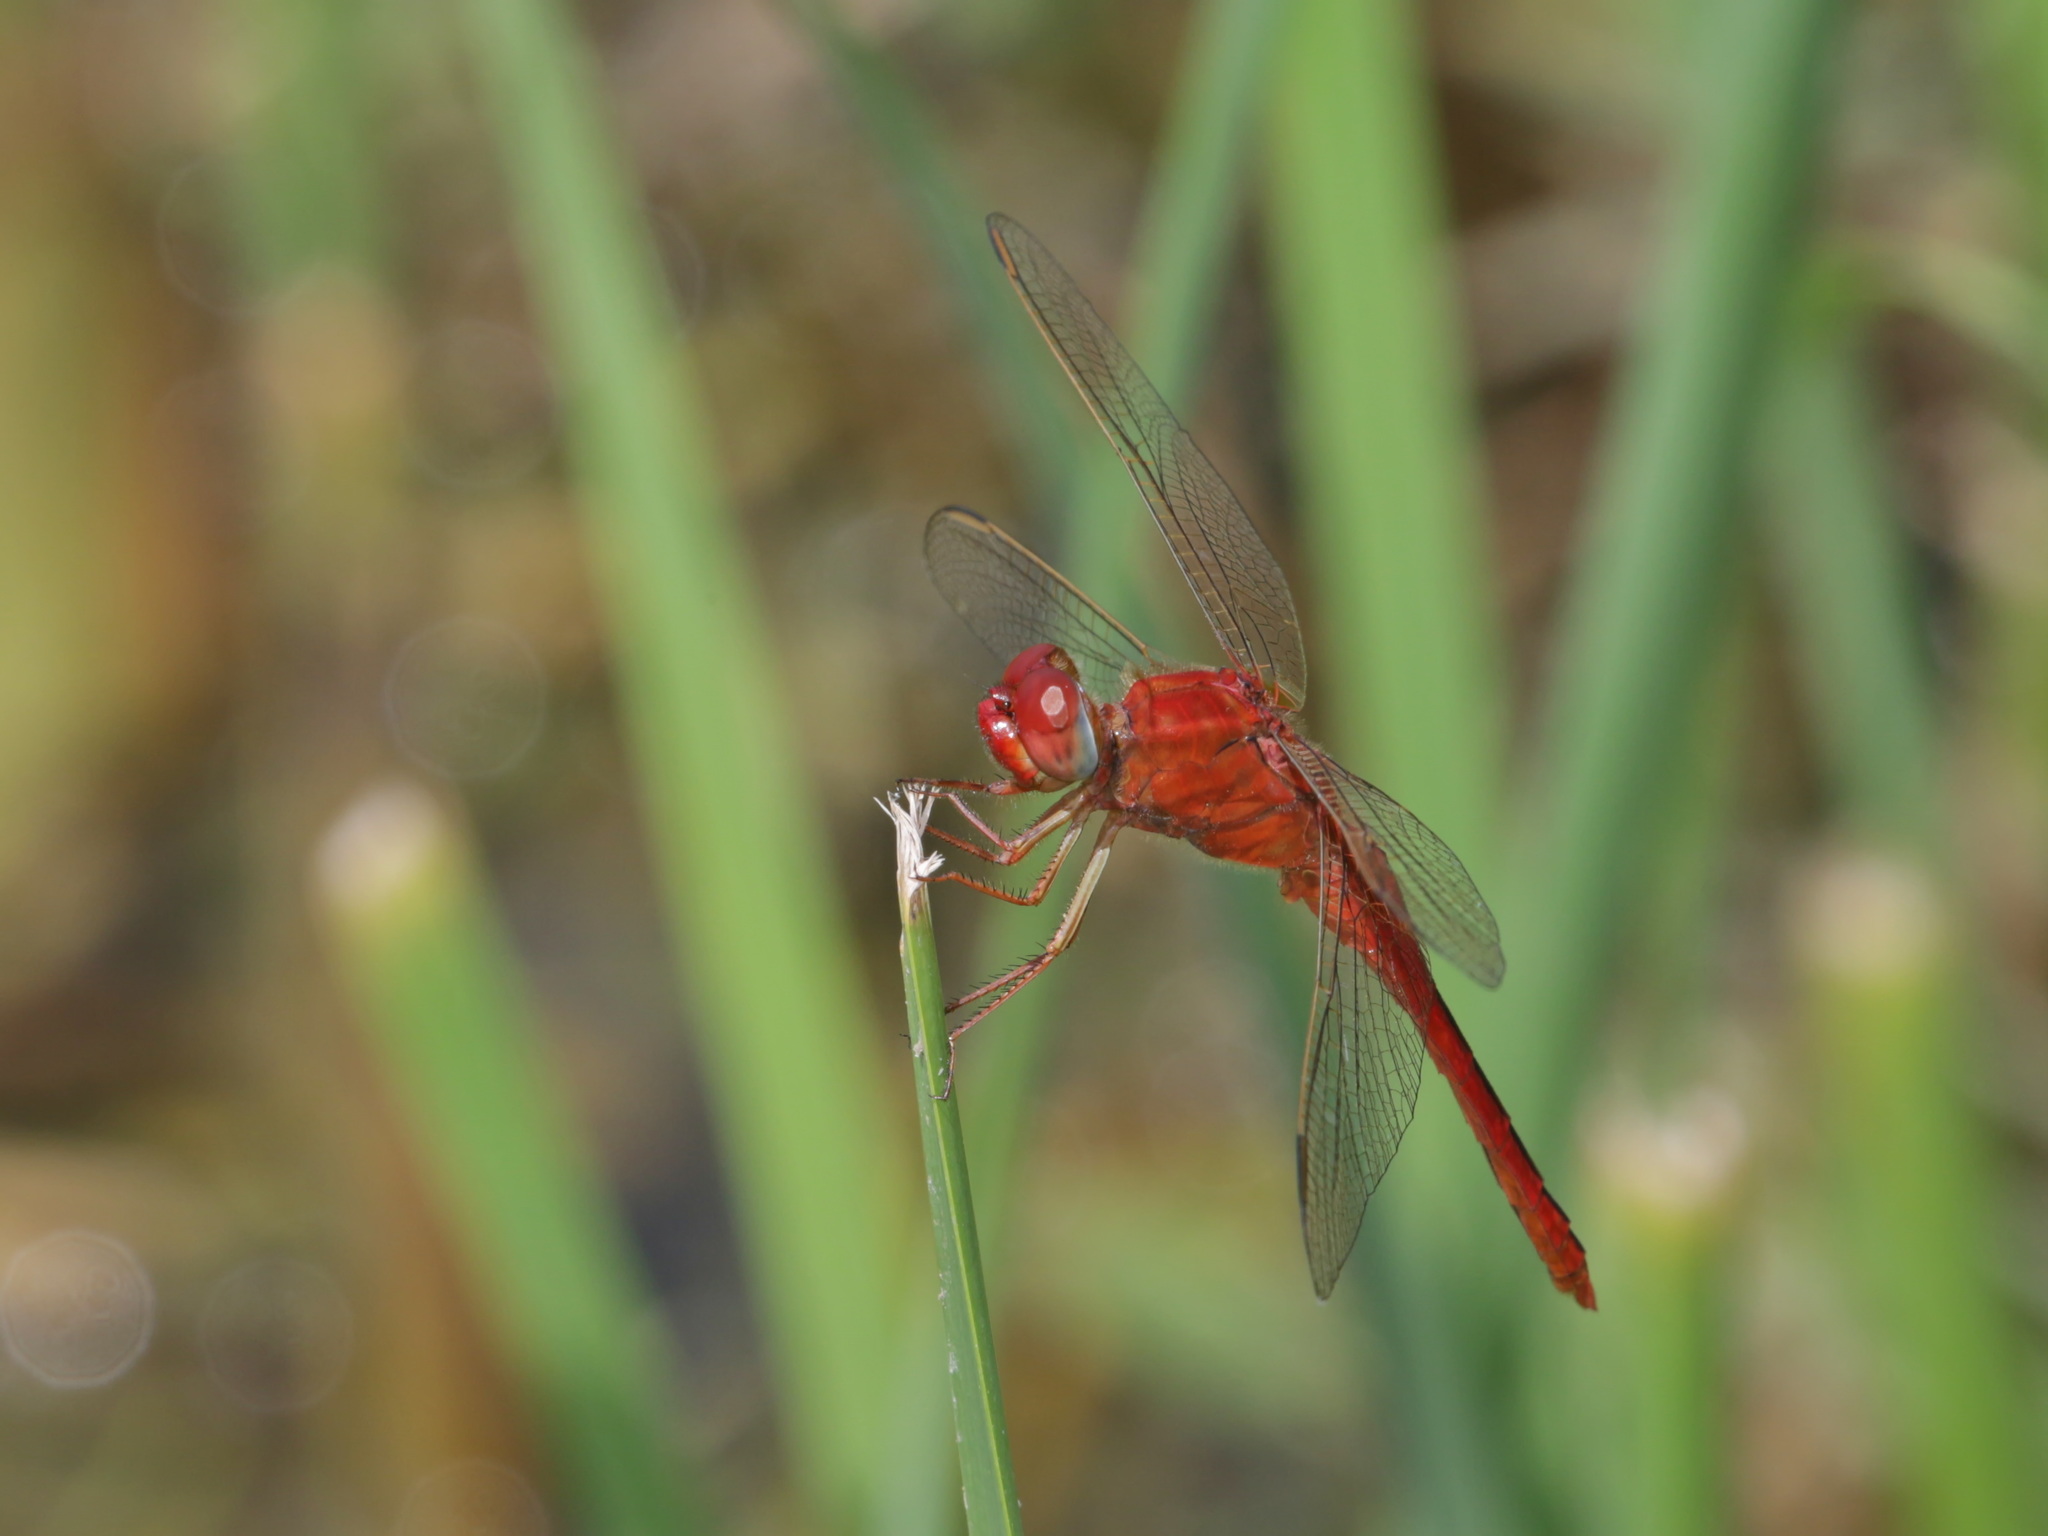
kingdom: Animalia
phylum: Arthropoda
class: Insecta
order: Odonata
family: Libellulidae
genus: Crocothemis
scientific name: Crocothemis servilia
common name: Scarlet skimmer
